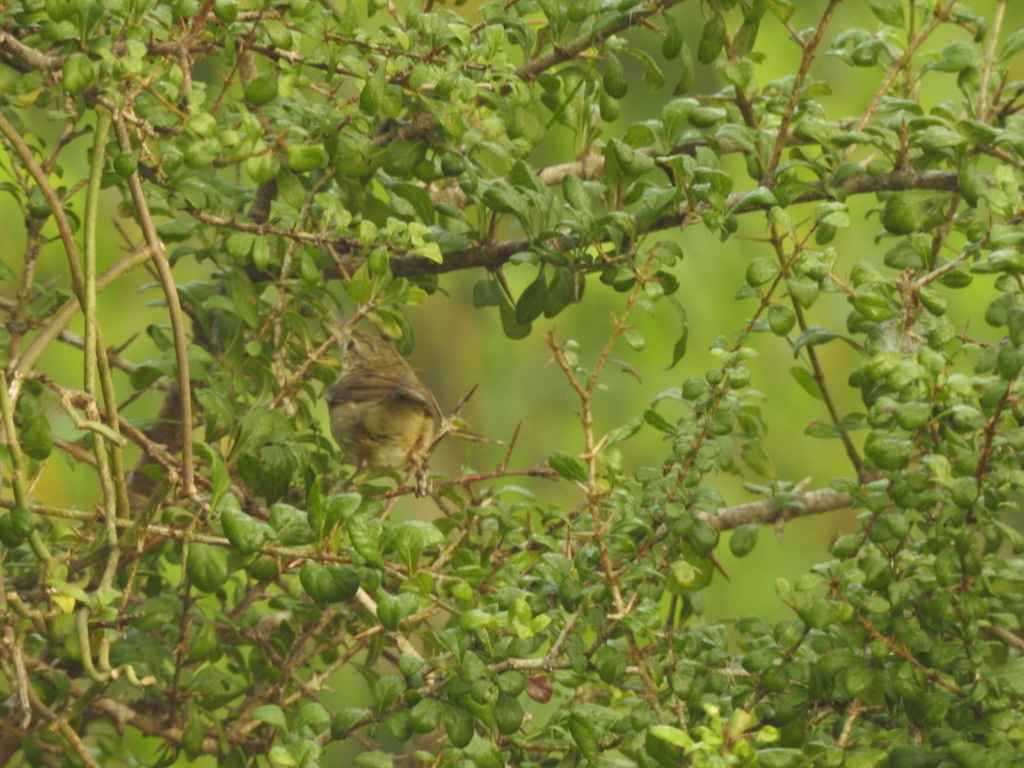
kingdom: Animalia
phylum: Chordata
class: Aves
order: Passeriformes
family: Acrocephalidae
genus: Iduna
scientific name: Iduna caligata
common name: Booted warbler
